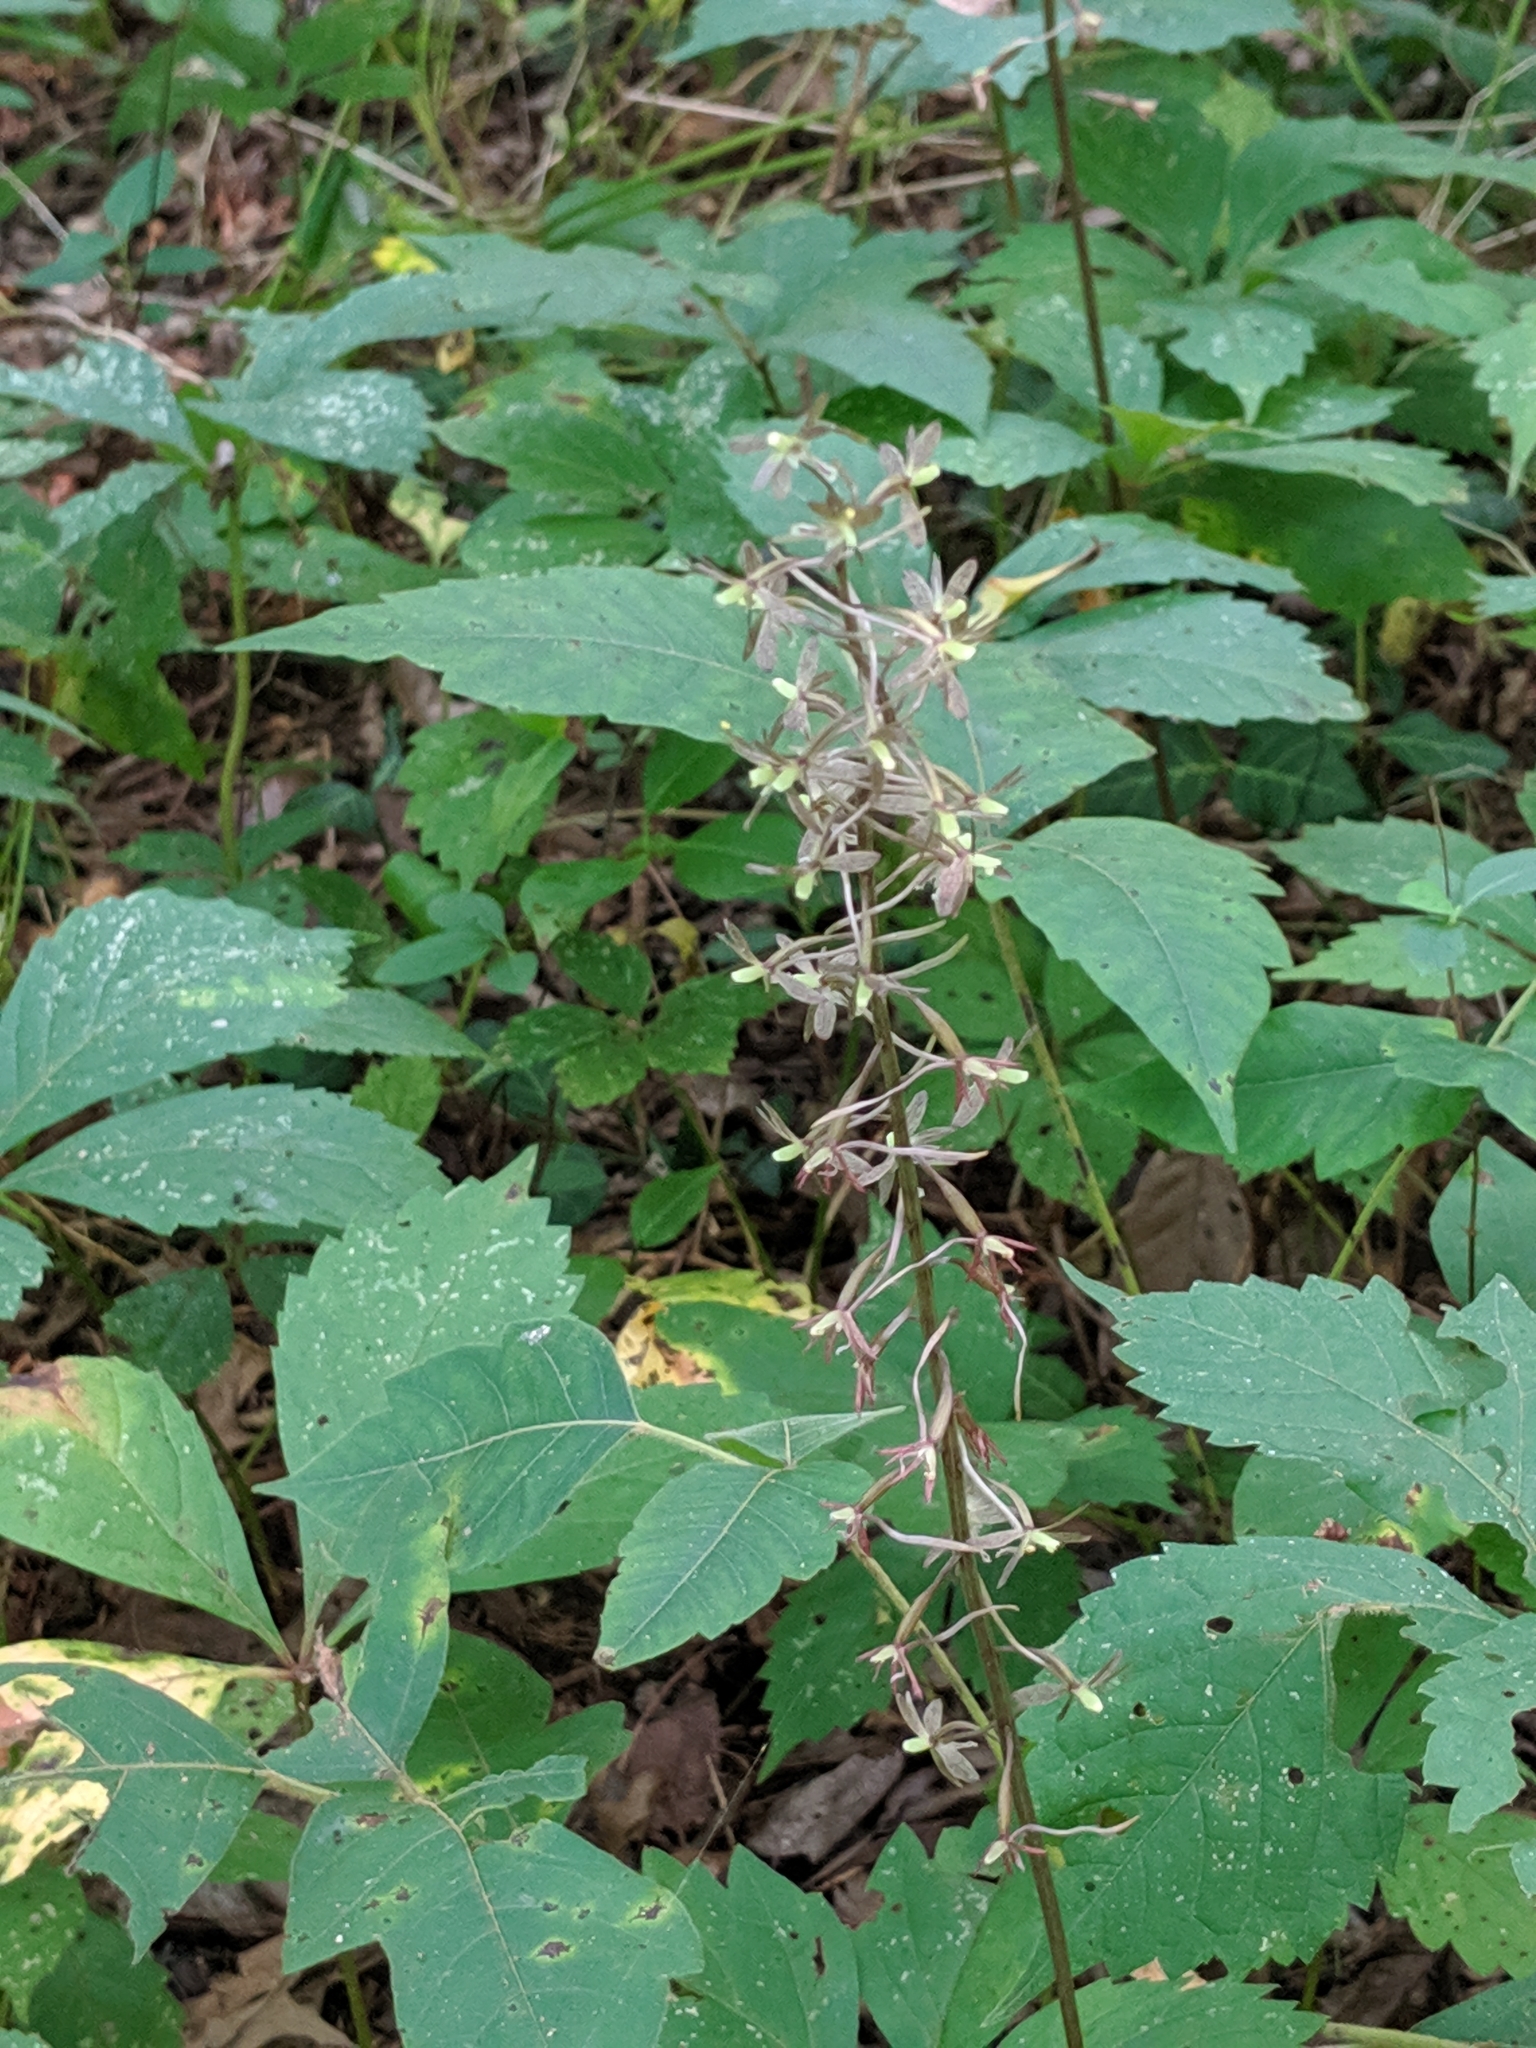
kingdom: Plantae
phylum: Tracheophyta
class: Liliopsida
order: Asparagales
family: Orchidaceae
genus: Tipularia
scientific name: Tipularia discolor
